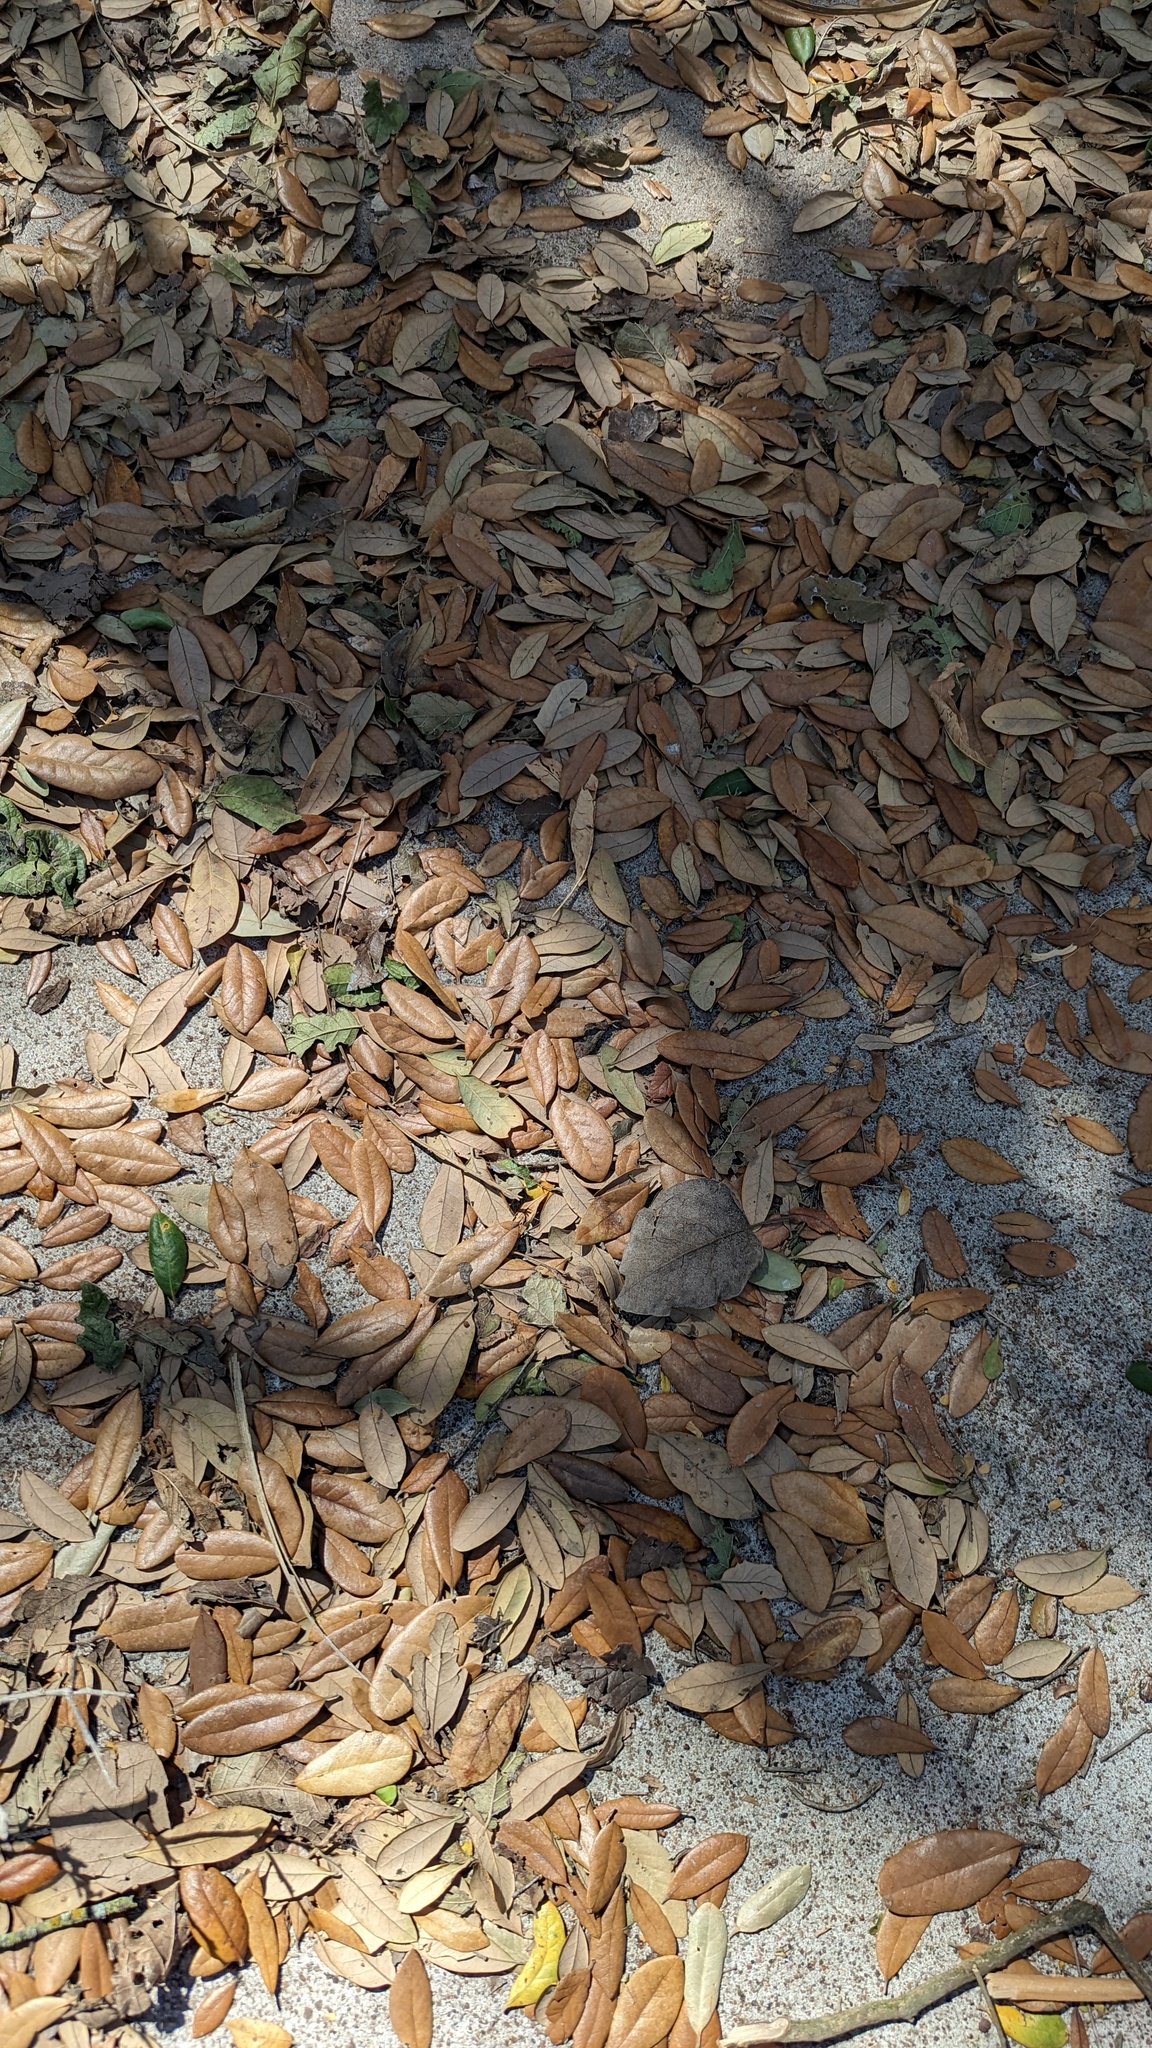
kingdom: Animalia
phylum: Arthropoda
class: Insecta
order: Hymenoptera
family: Cynipidae
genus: Disholcaspis
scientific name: Disholcaspis
